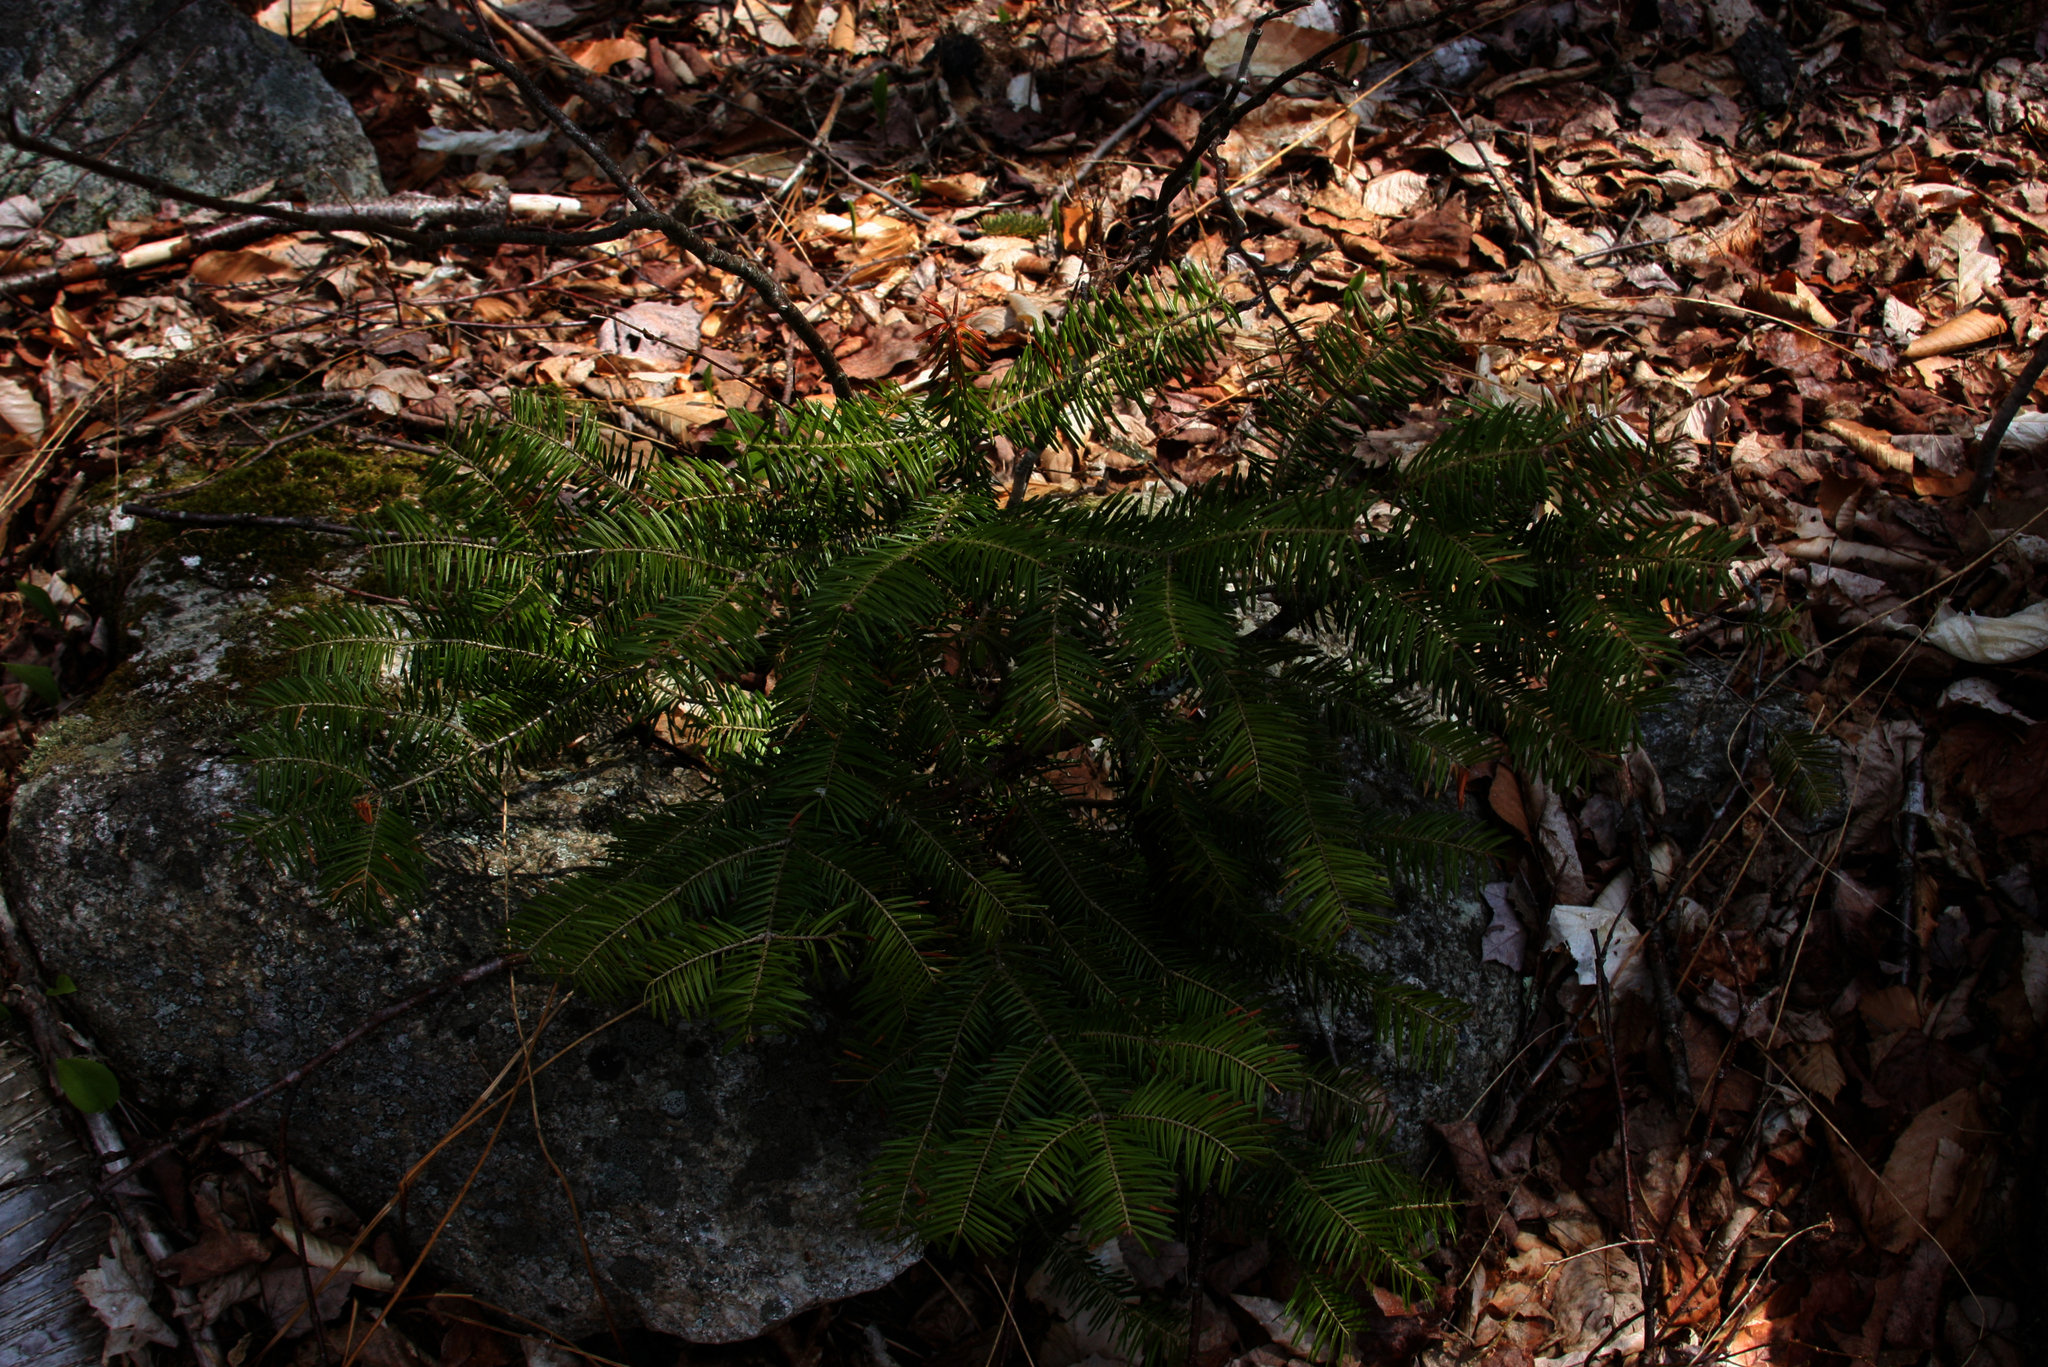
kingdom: Plantae
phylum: Tracheophyta
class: Pinopsida
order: Pinales
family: Pinaceae
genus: Abies
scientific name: Abies balsamea
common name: Balsam fir
